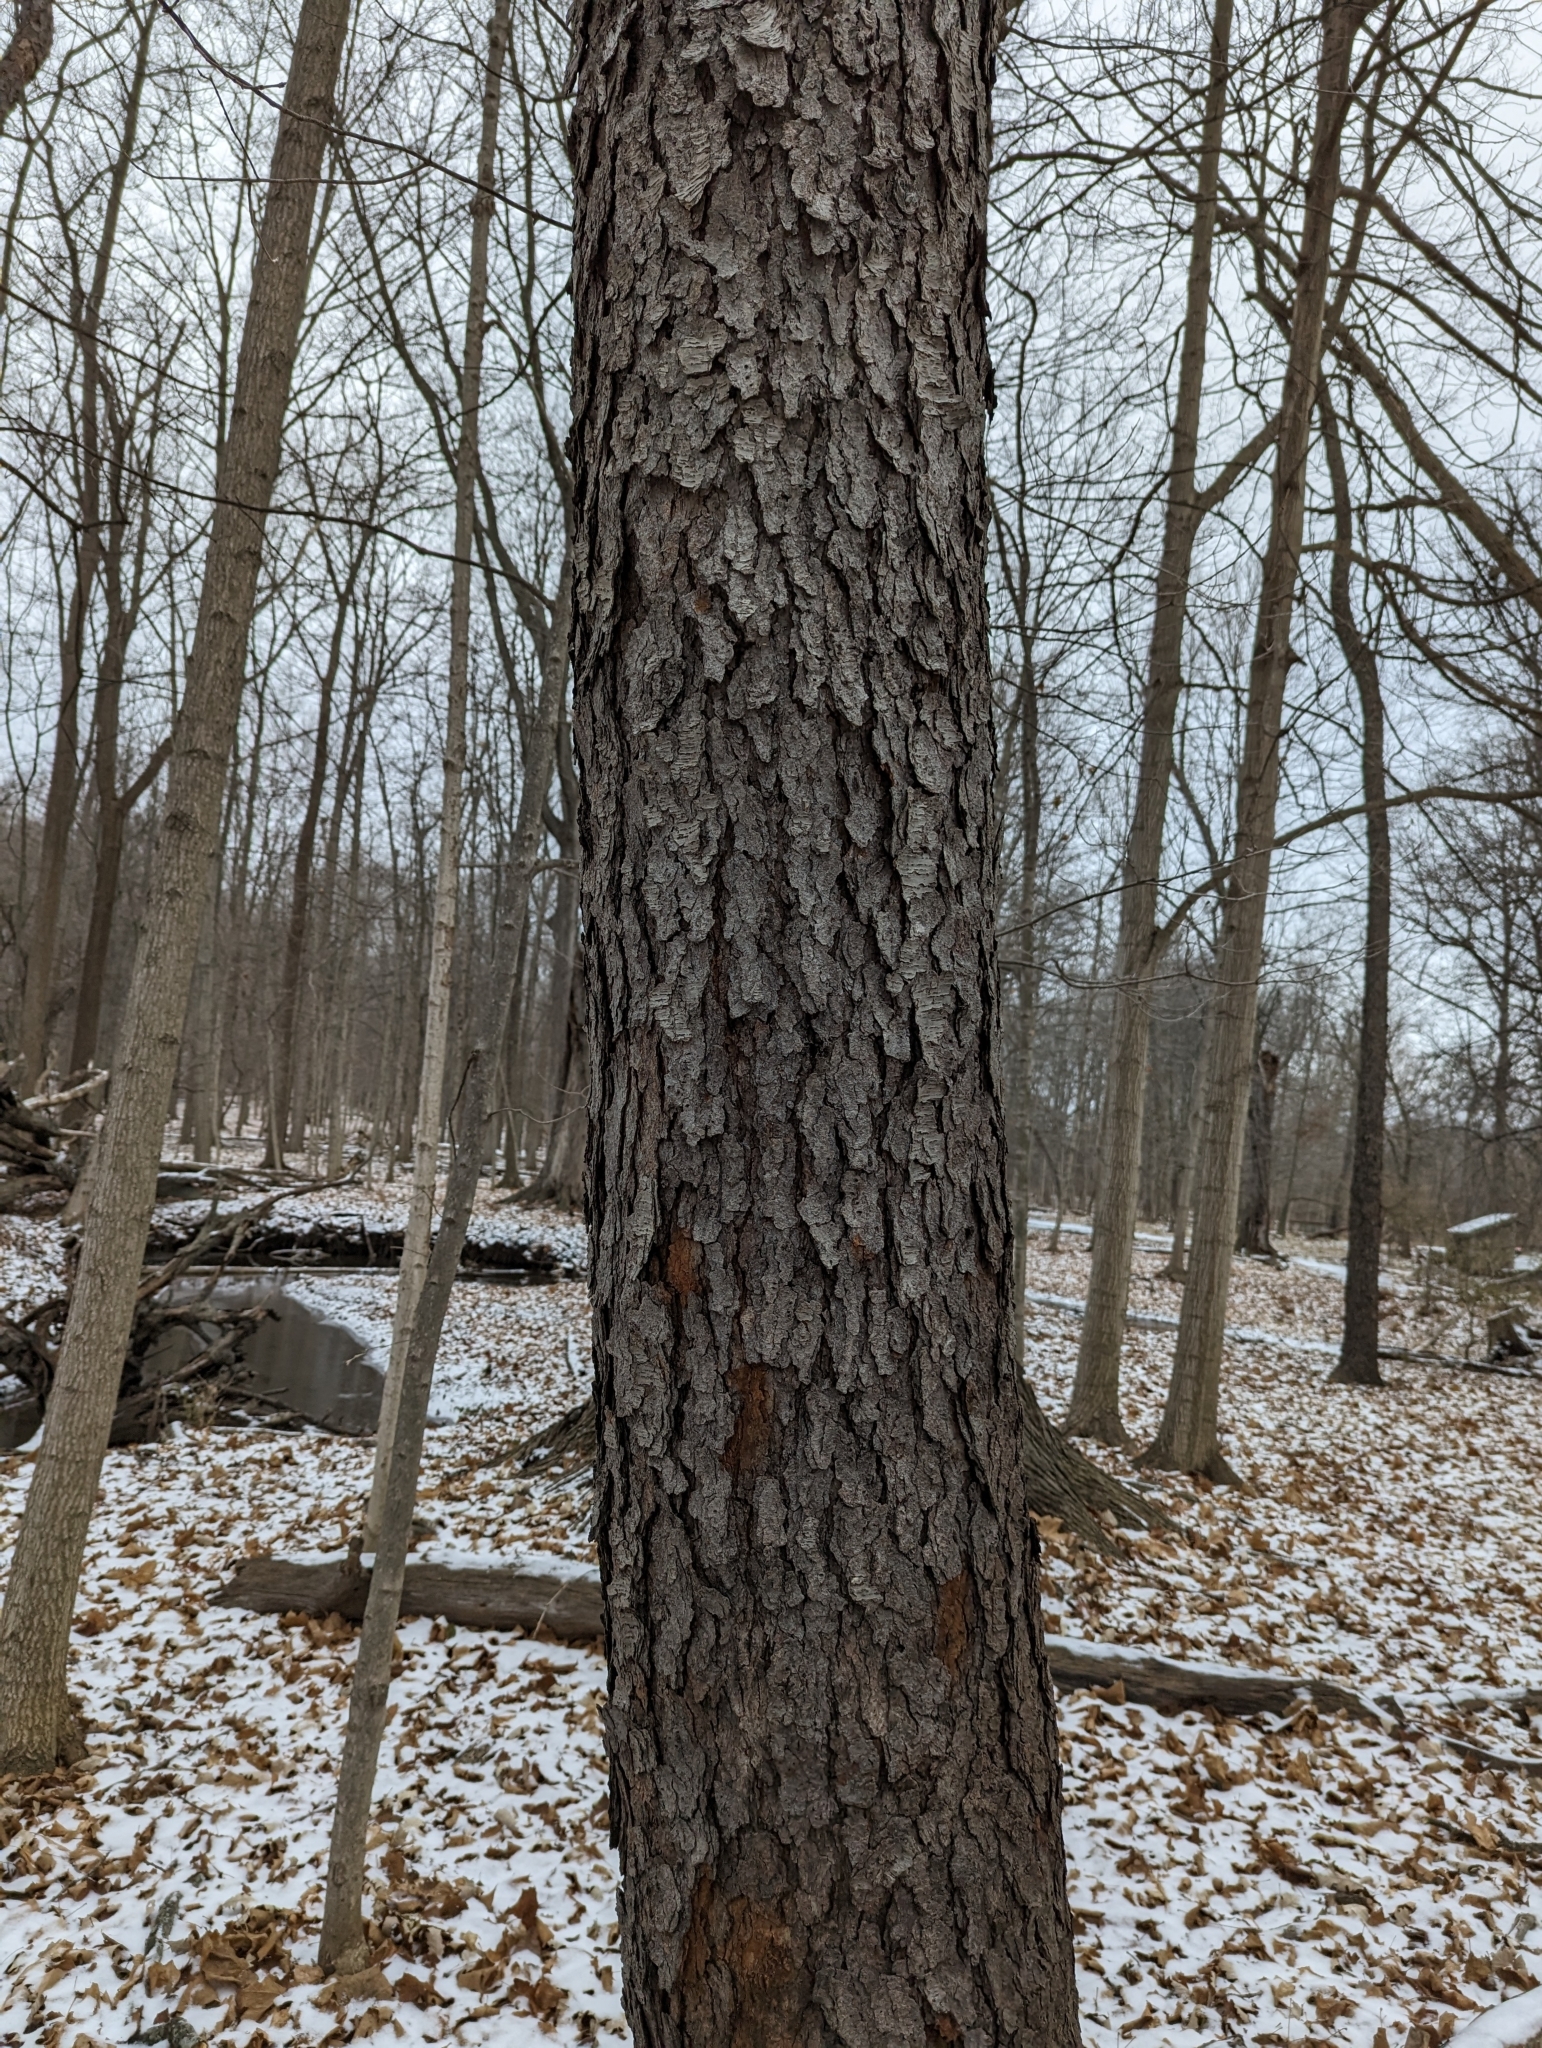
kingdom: Plantae
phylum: Tracheophyta
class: Magnoliopsida
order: Rosales
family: Rosaceae
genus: Prunus
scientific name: Prunus serotina
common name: Black cherry
